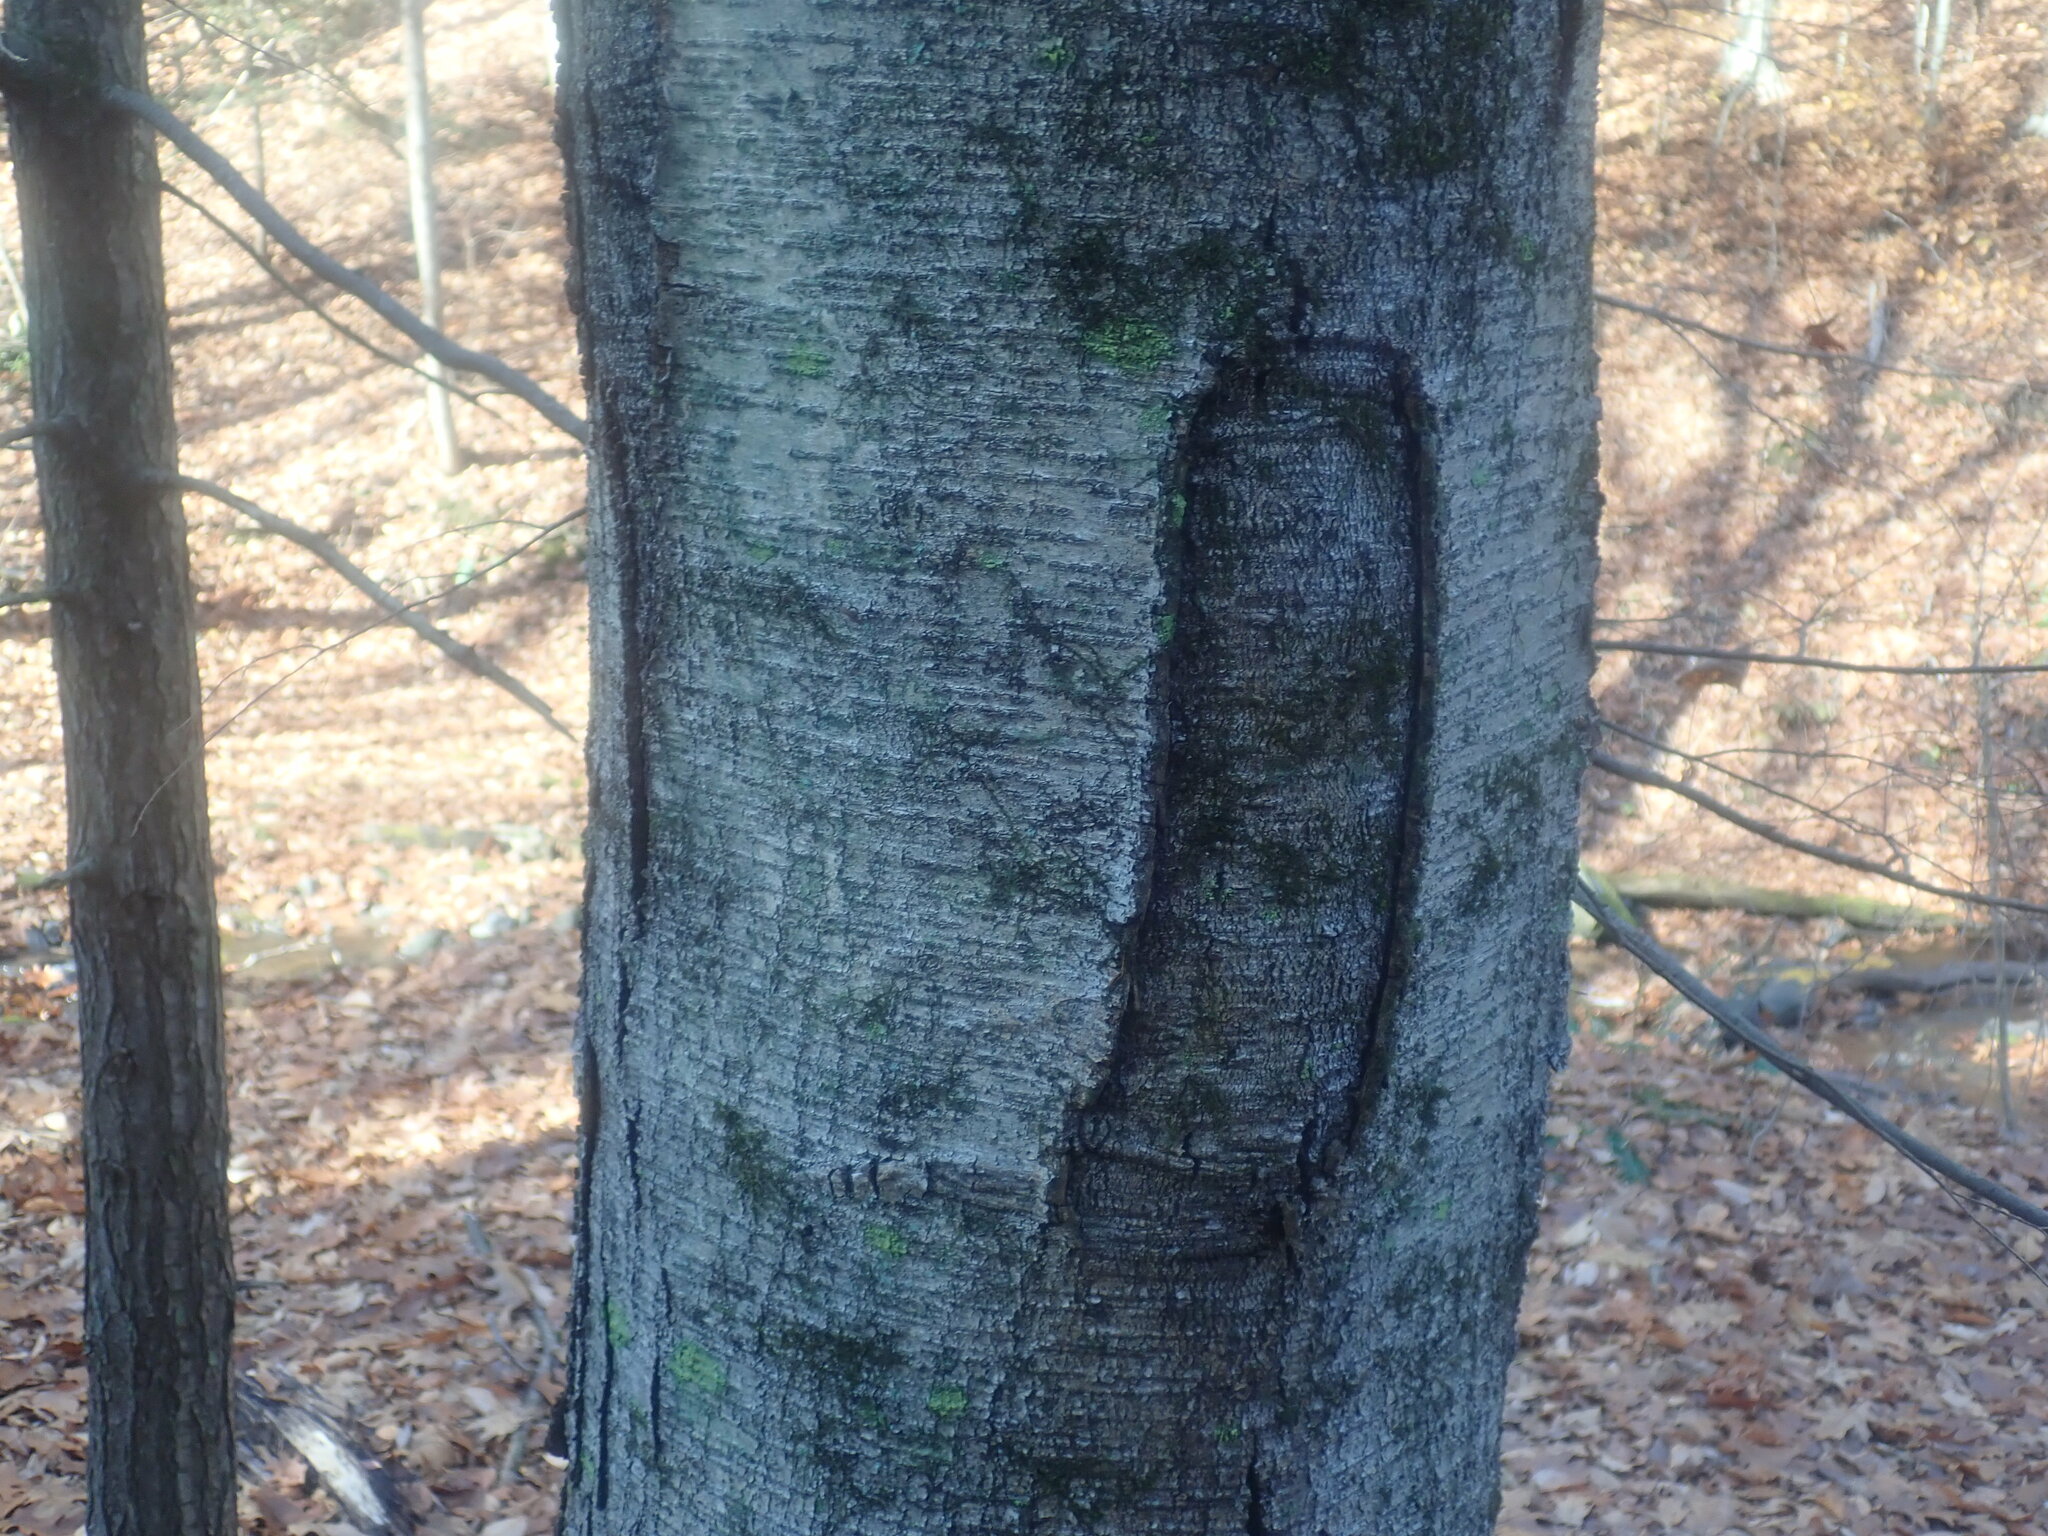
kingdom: Plantae
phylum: Tracheophyta
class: Magnoliopsida
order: Fagales
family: Betulaceae
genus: Betula
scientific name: Betula lenta
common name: Black birch
